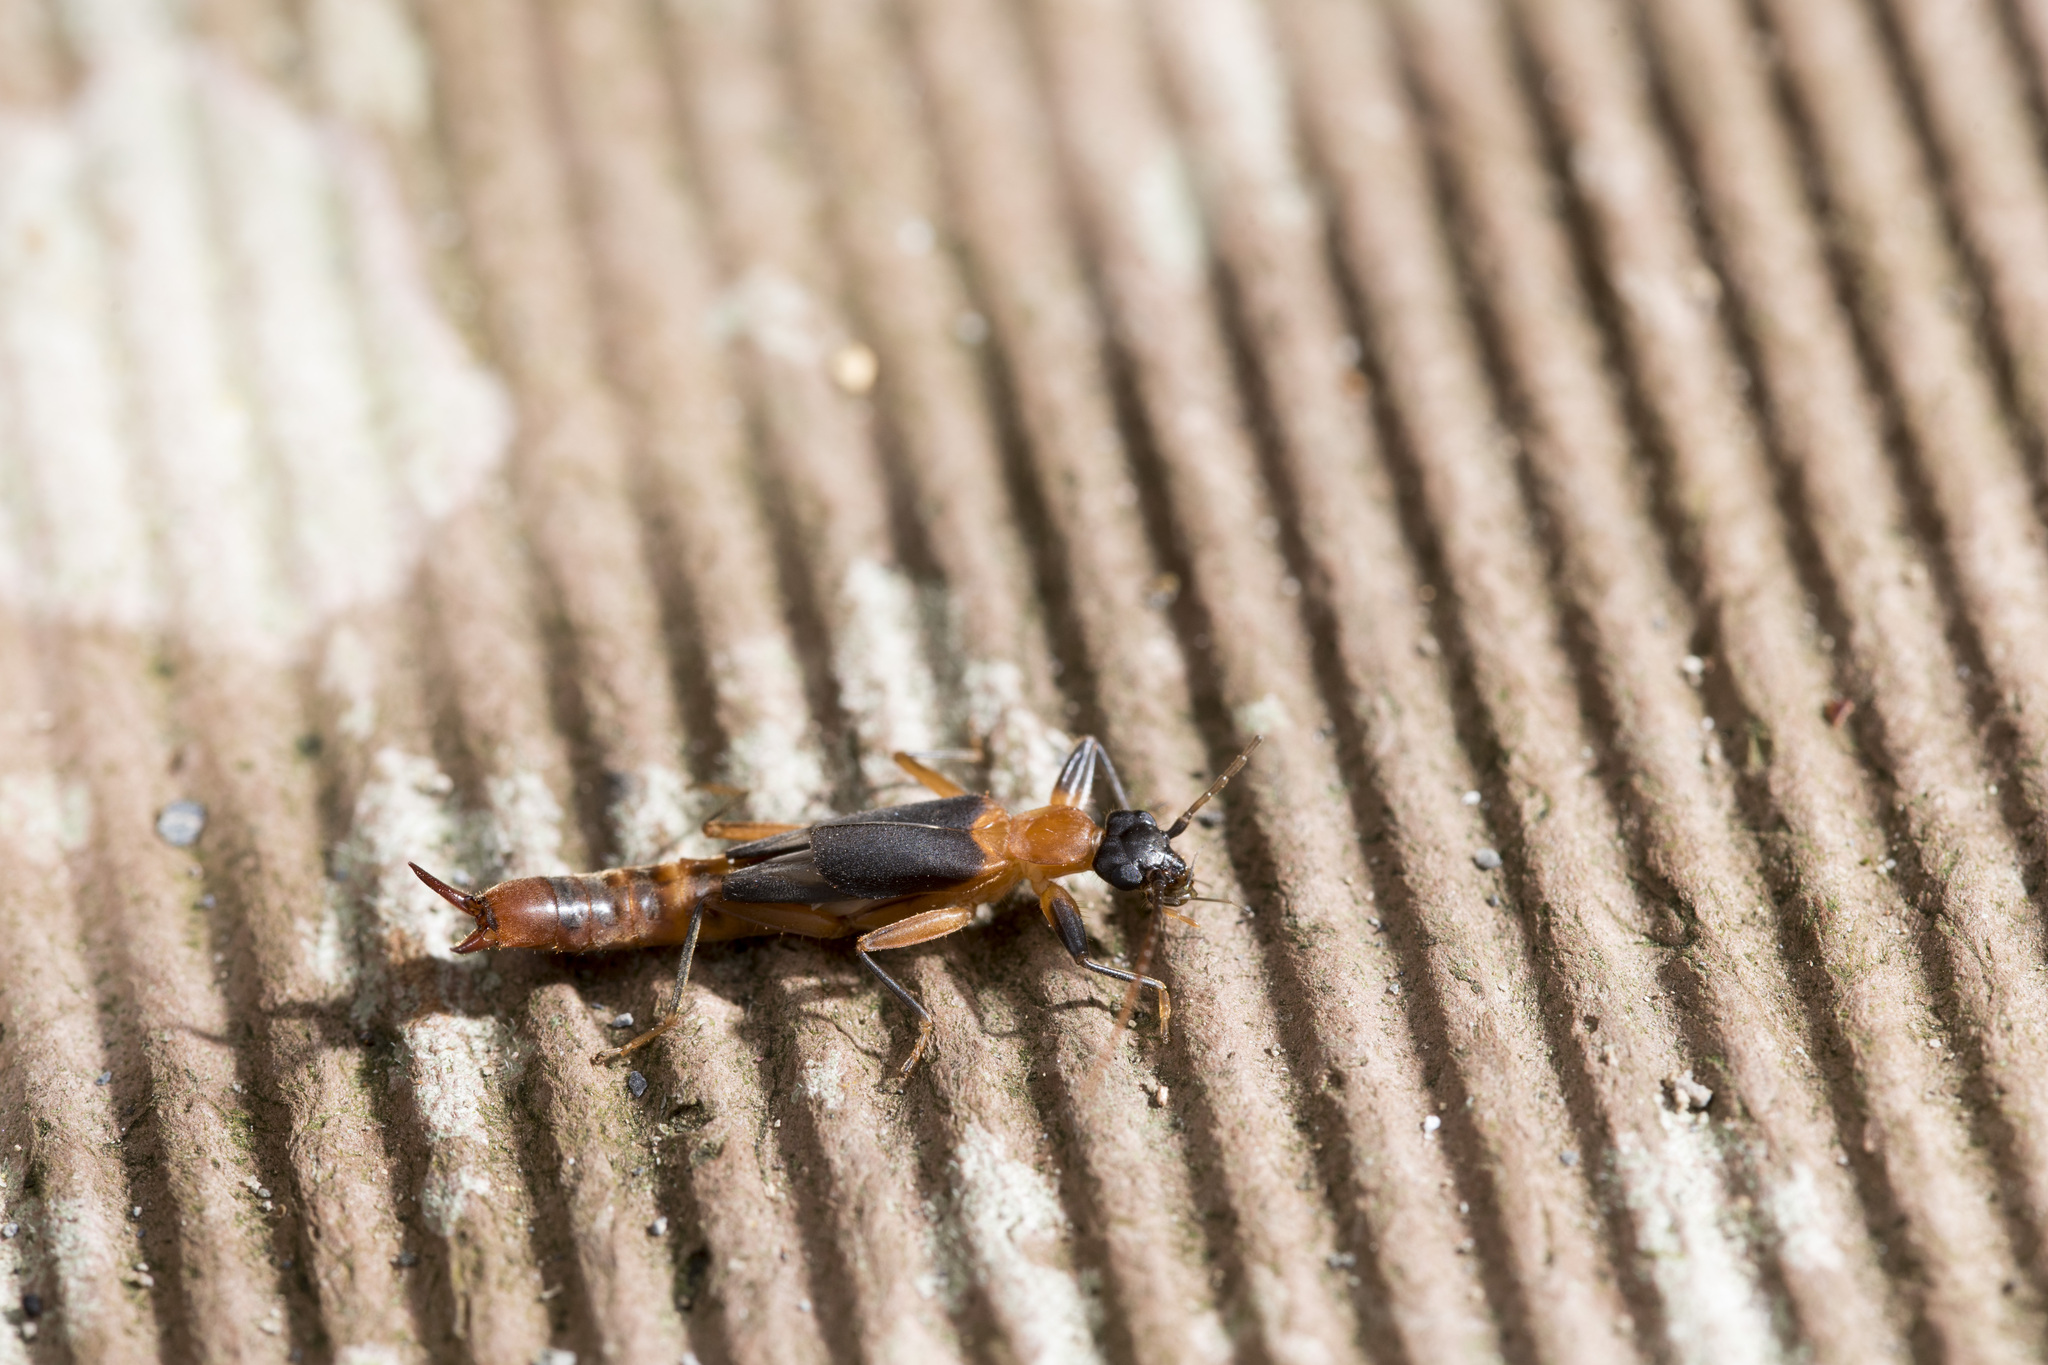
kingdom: Animalia
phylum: Arthropoda
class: Insecta
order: Dermaptera
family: Diplatyidae
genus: Diplatys
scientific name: Diplatys flavicollis
